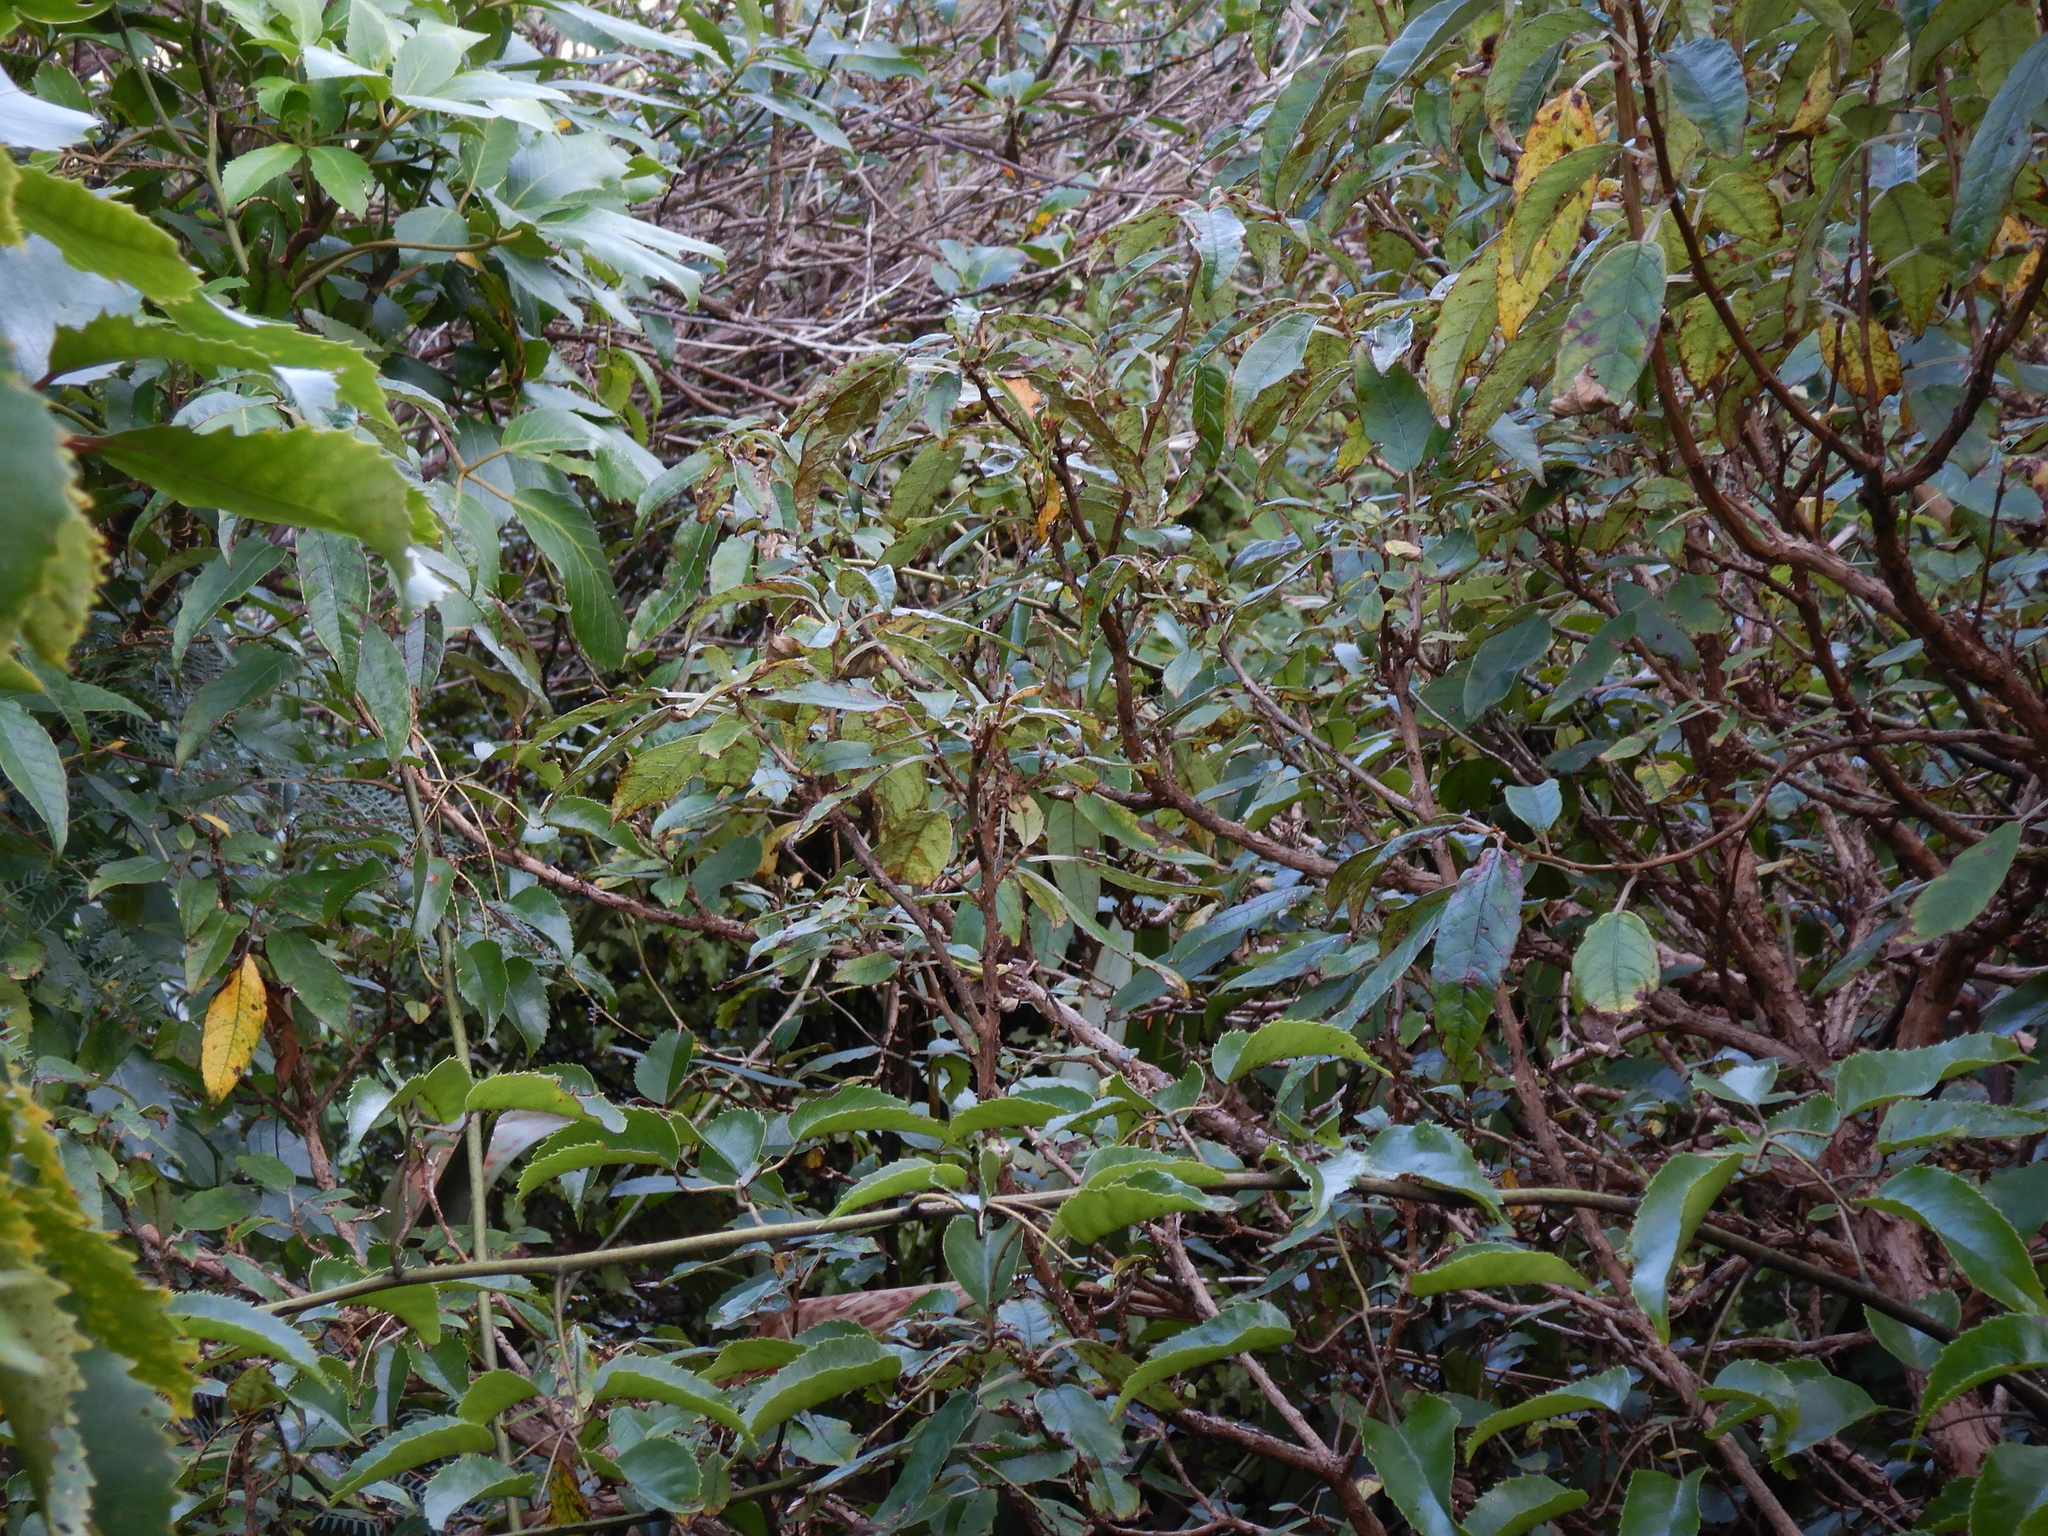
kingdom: Plantae
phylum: Tracheophyta
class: Magnoliopsida
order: Myrtales
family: Onagraceae
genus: Fuchsia
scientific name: Fuchsia excorticata
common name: Tree fuchsia
